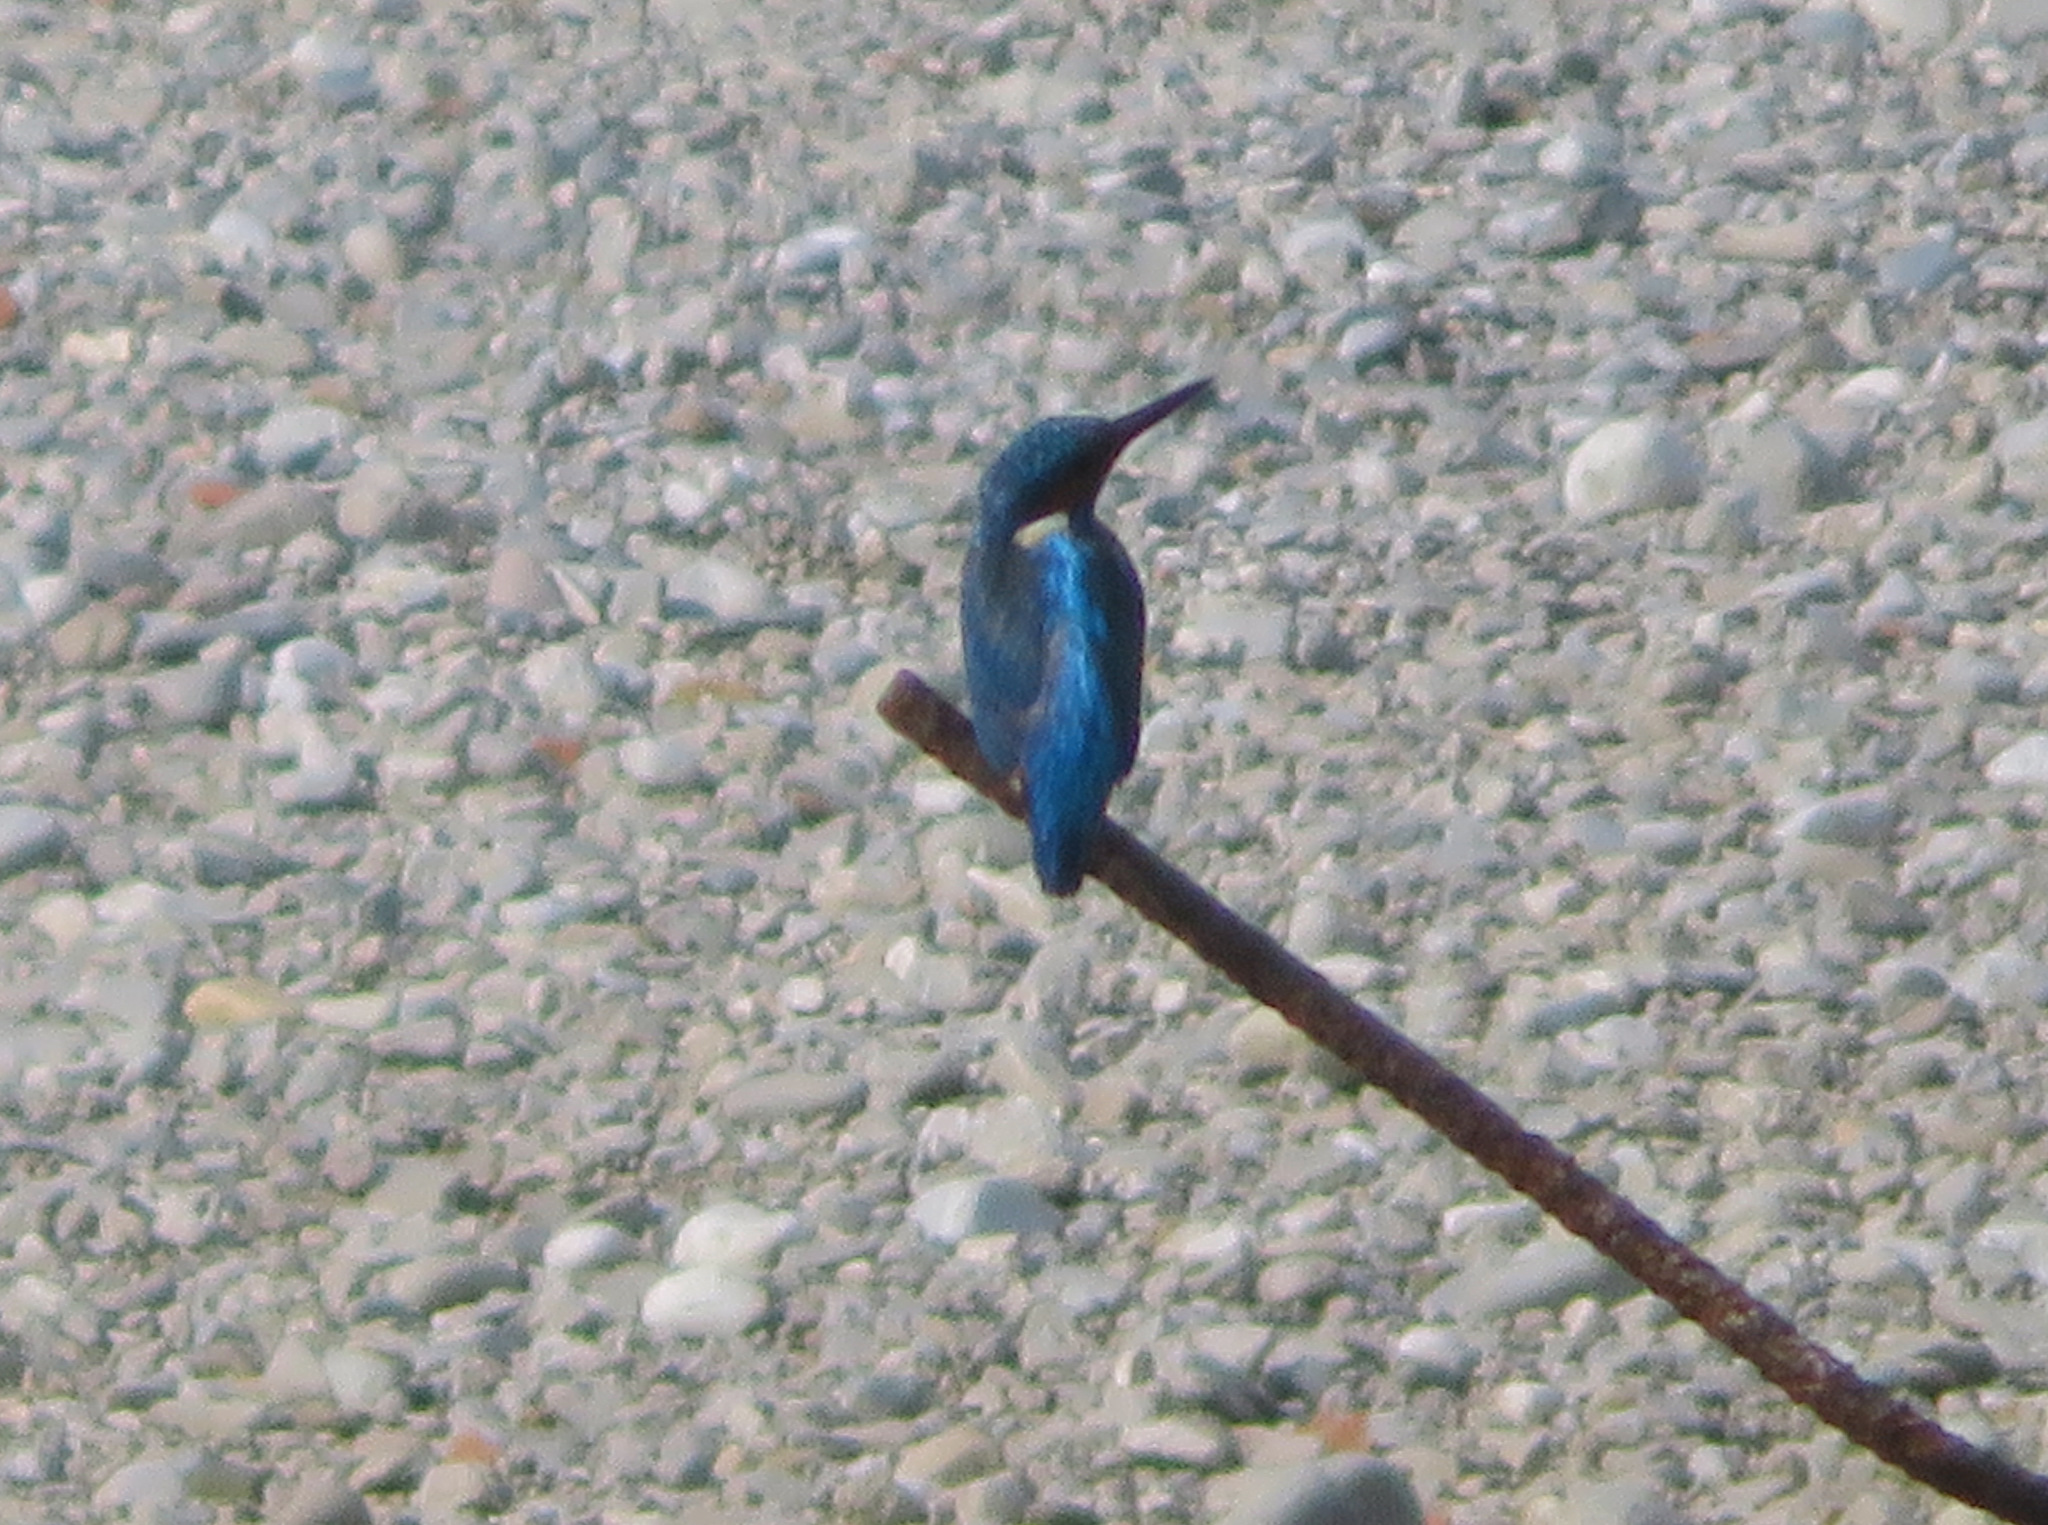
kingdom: Animalia
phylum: Chordata
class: Aves
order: Coraciiformes
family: Alcedinidae
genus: Alcedo
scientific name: Alcedo atthis
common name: Common kingfisher
